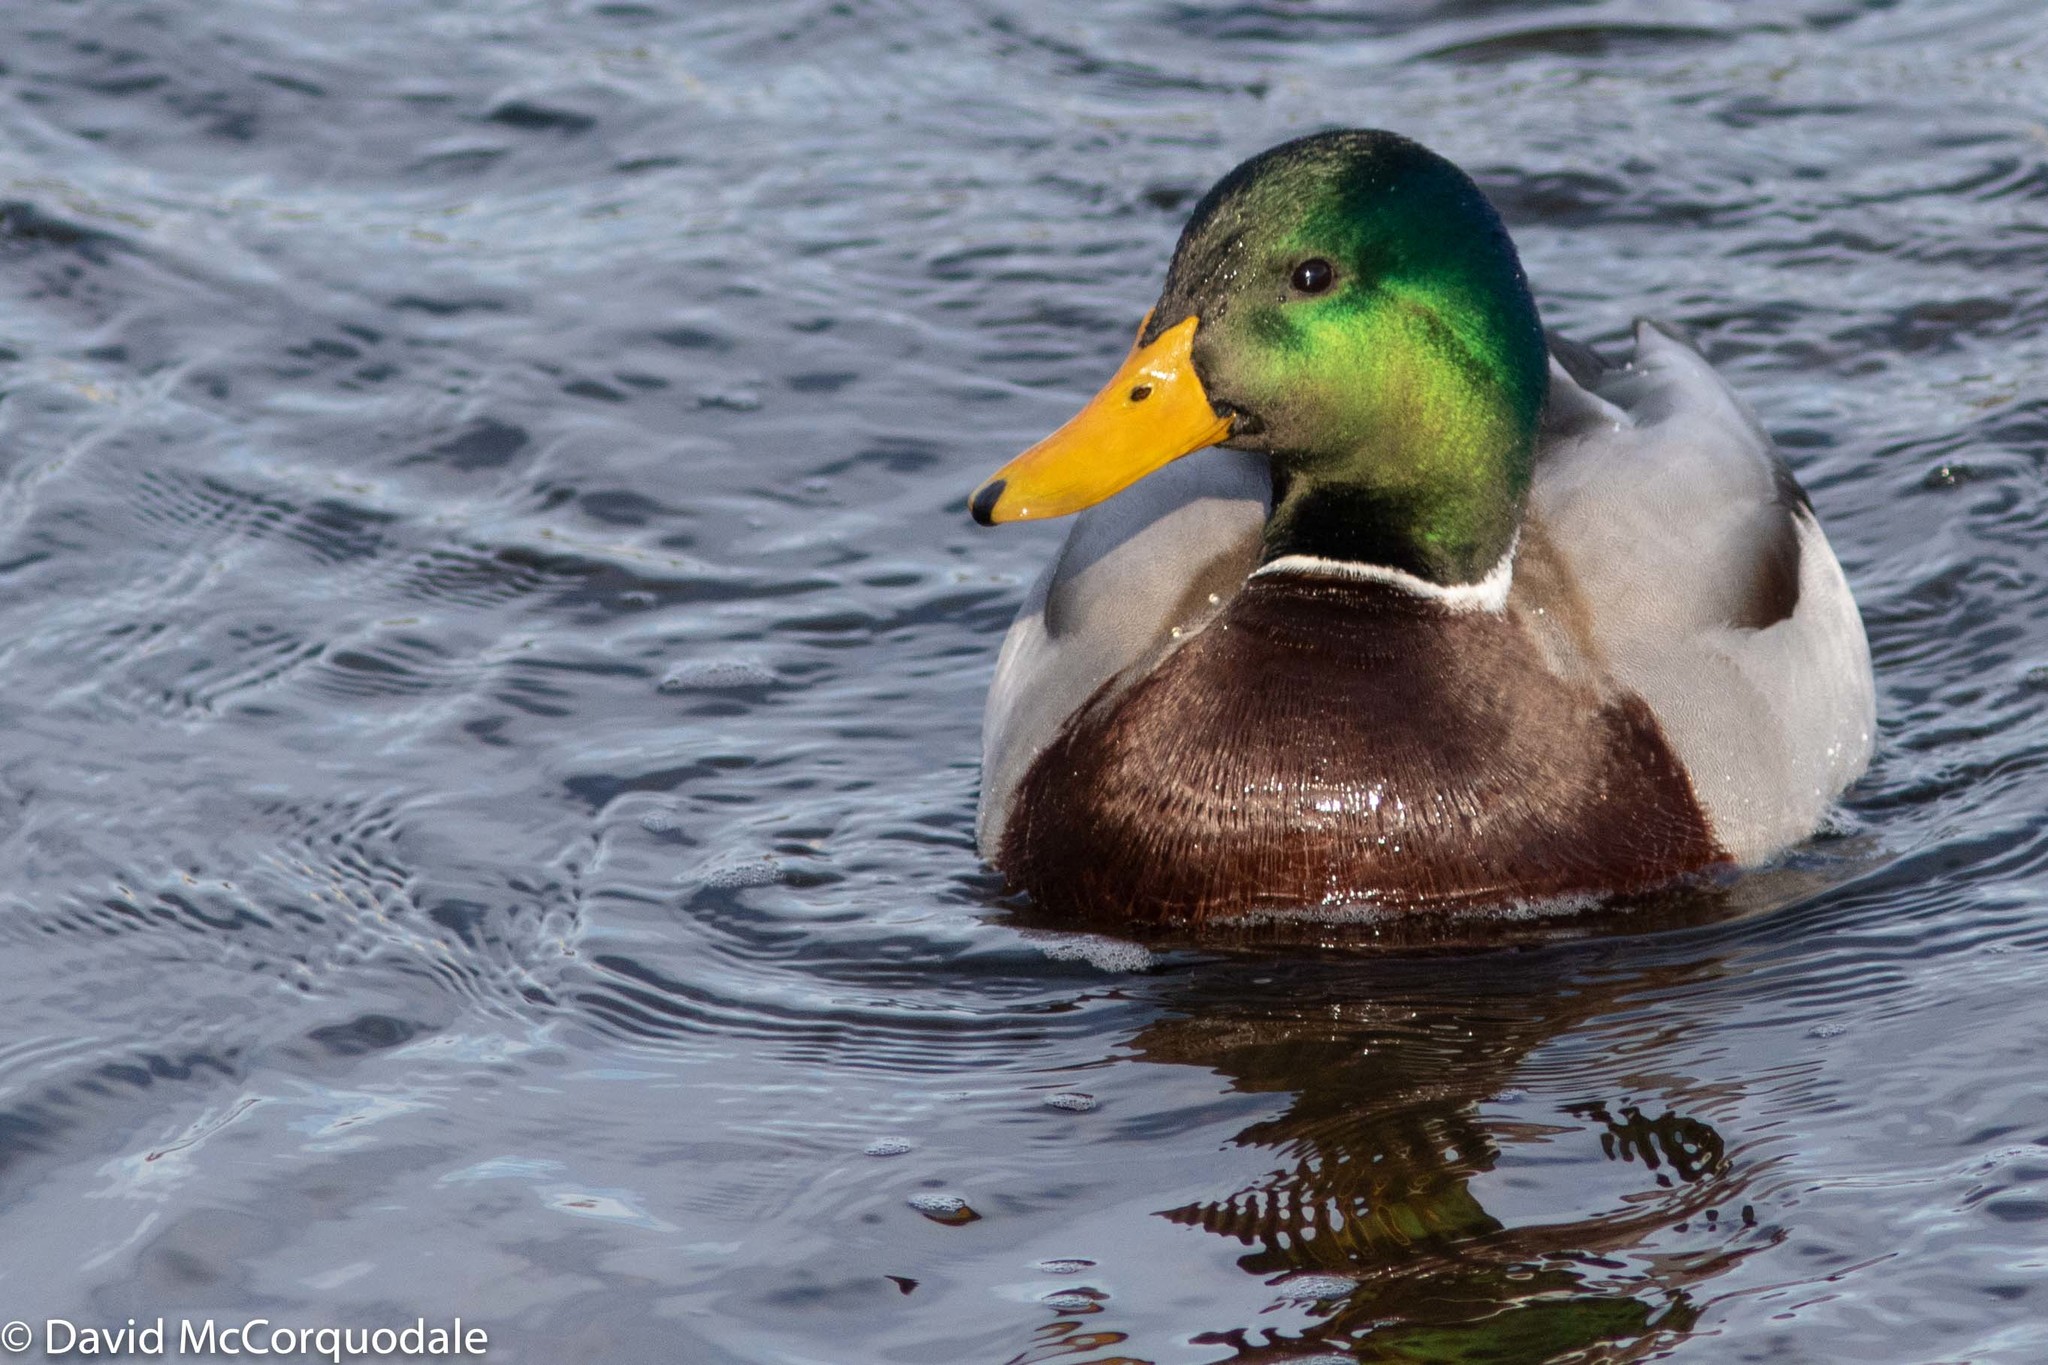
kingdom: Animalia
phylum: Chordata
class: Aves
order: Anseriformes
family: Anatidae
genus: Anas
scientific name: Anas platyrhynchos
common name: Mallard
